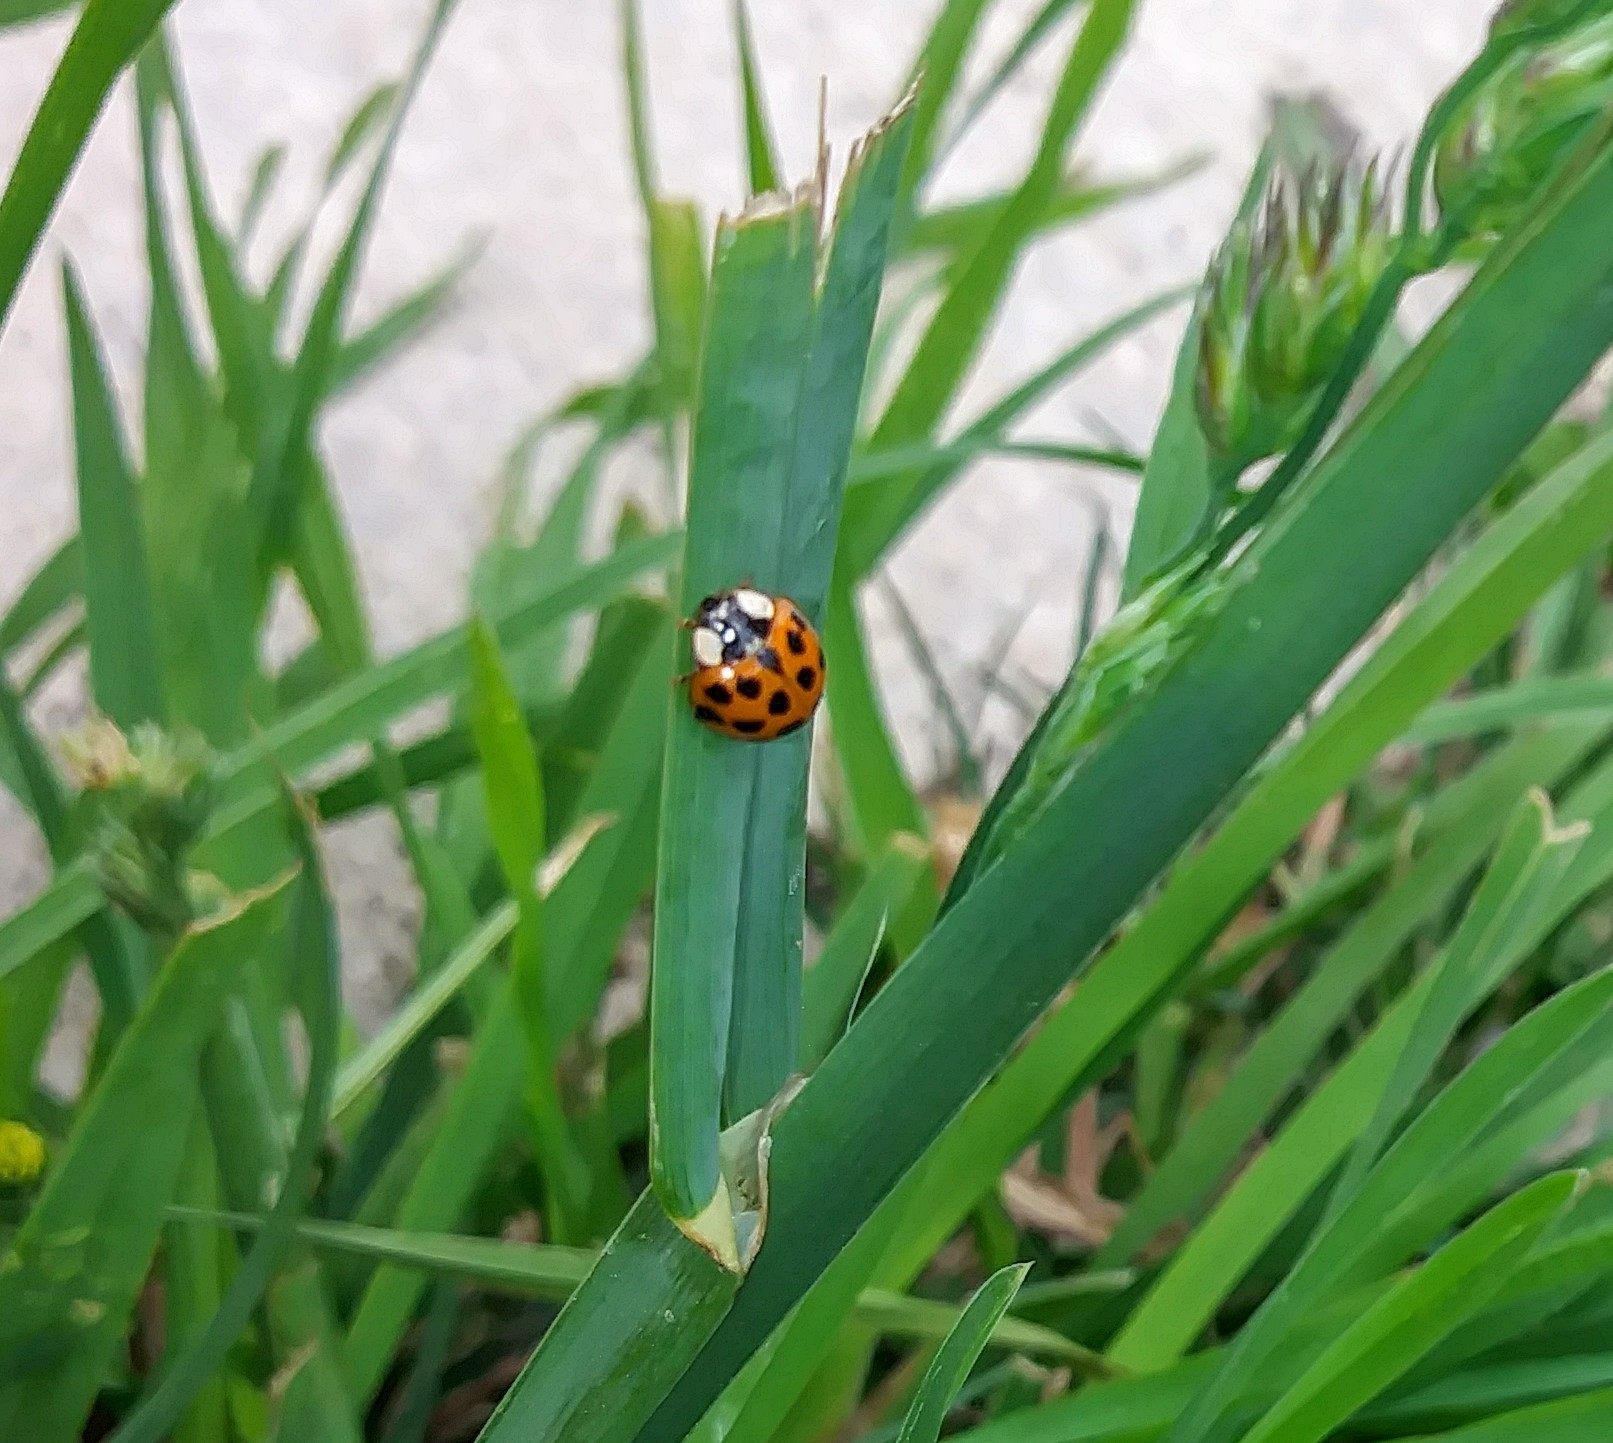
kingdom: Animalia
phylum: Arthropoda
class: Insecta
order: Coleoptera
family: Coccinellidae
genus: Harmonia
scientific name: Harmonia axyridis
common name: Harlequin ladybird
